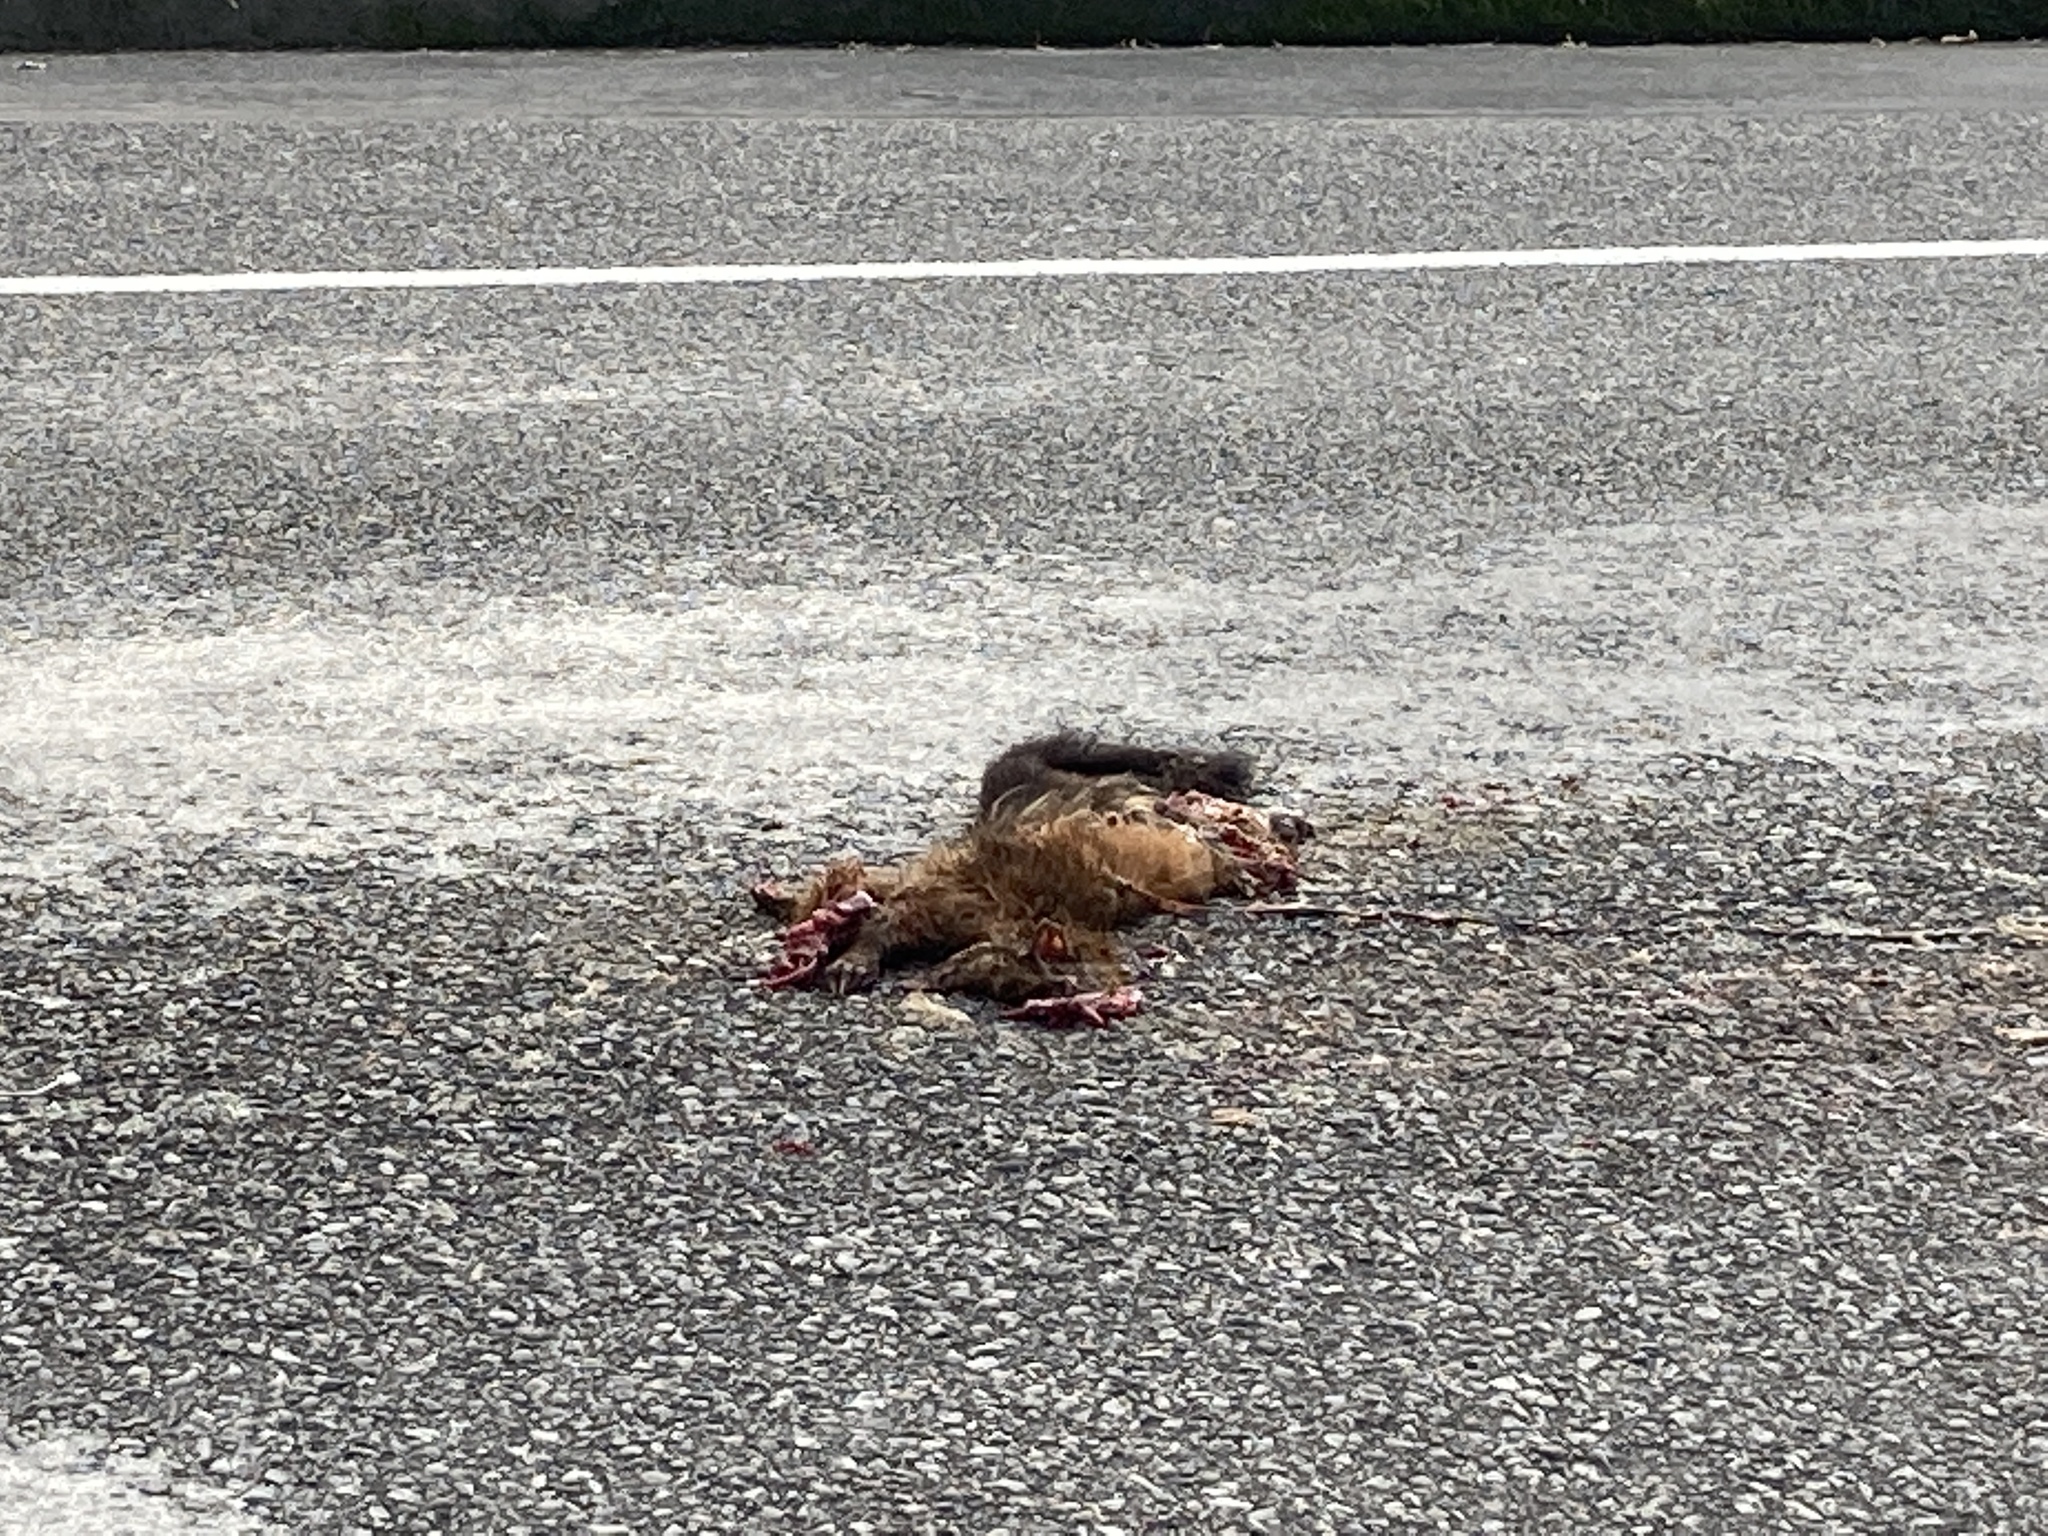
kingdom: Animalia
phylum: Chordata
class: Mammalia
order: Diprotodontia
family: Phalangeridae
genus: Trichosurus
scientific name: Trichosurus vulpecula
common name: Common brushtail
